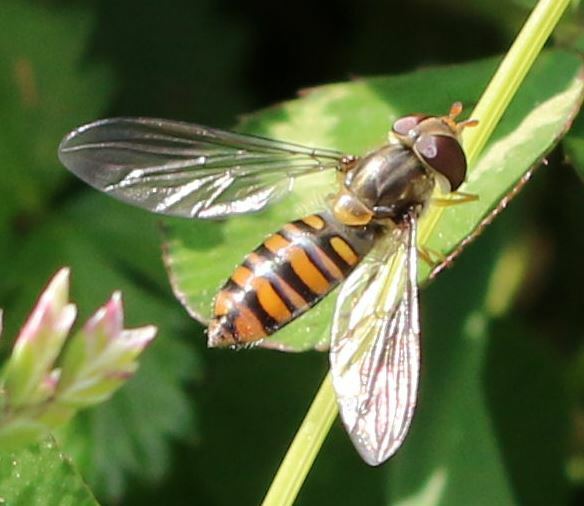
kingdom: Animalia
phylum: Arthropoda
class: Insecta
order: Diptera
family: Syrphidae
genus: Episyrphus
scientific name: Episyrphus balteatus
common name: Marmalade hoverfly
